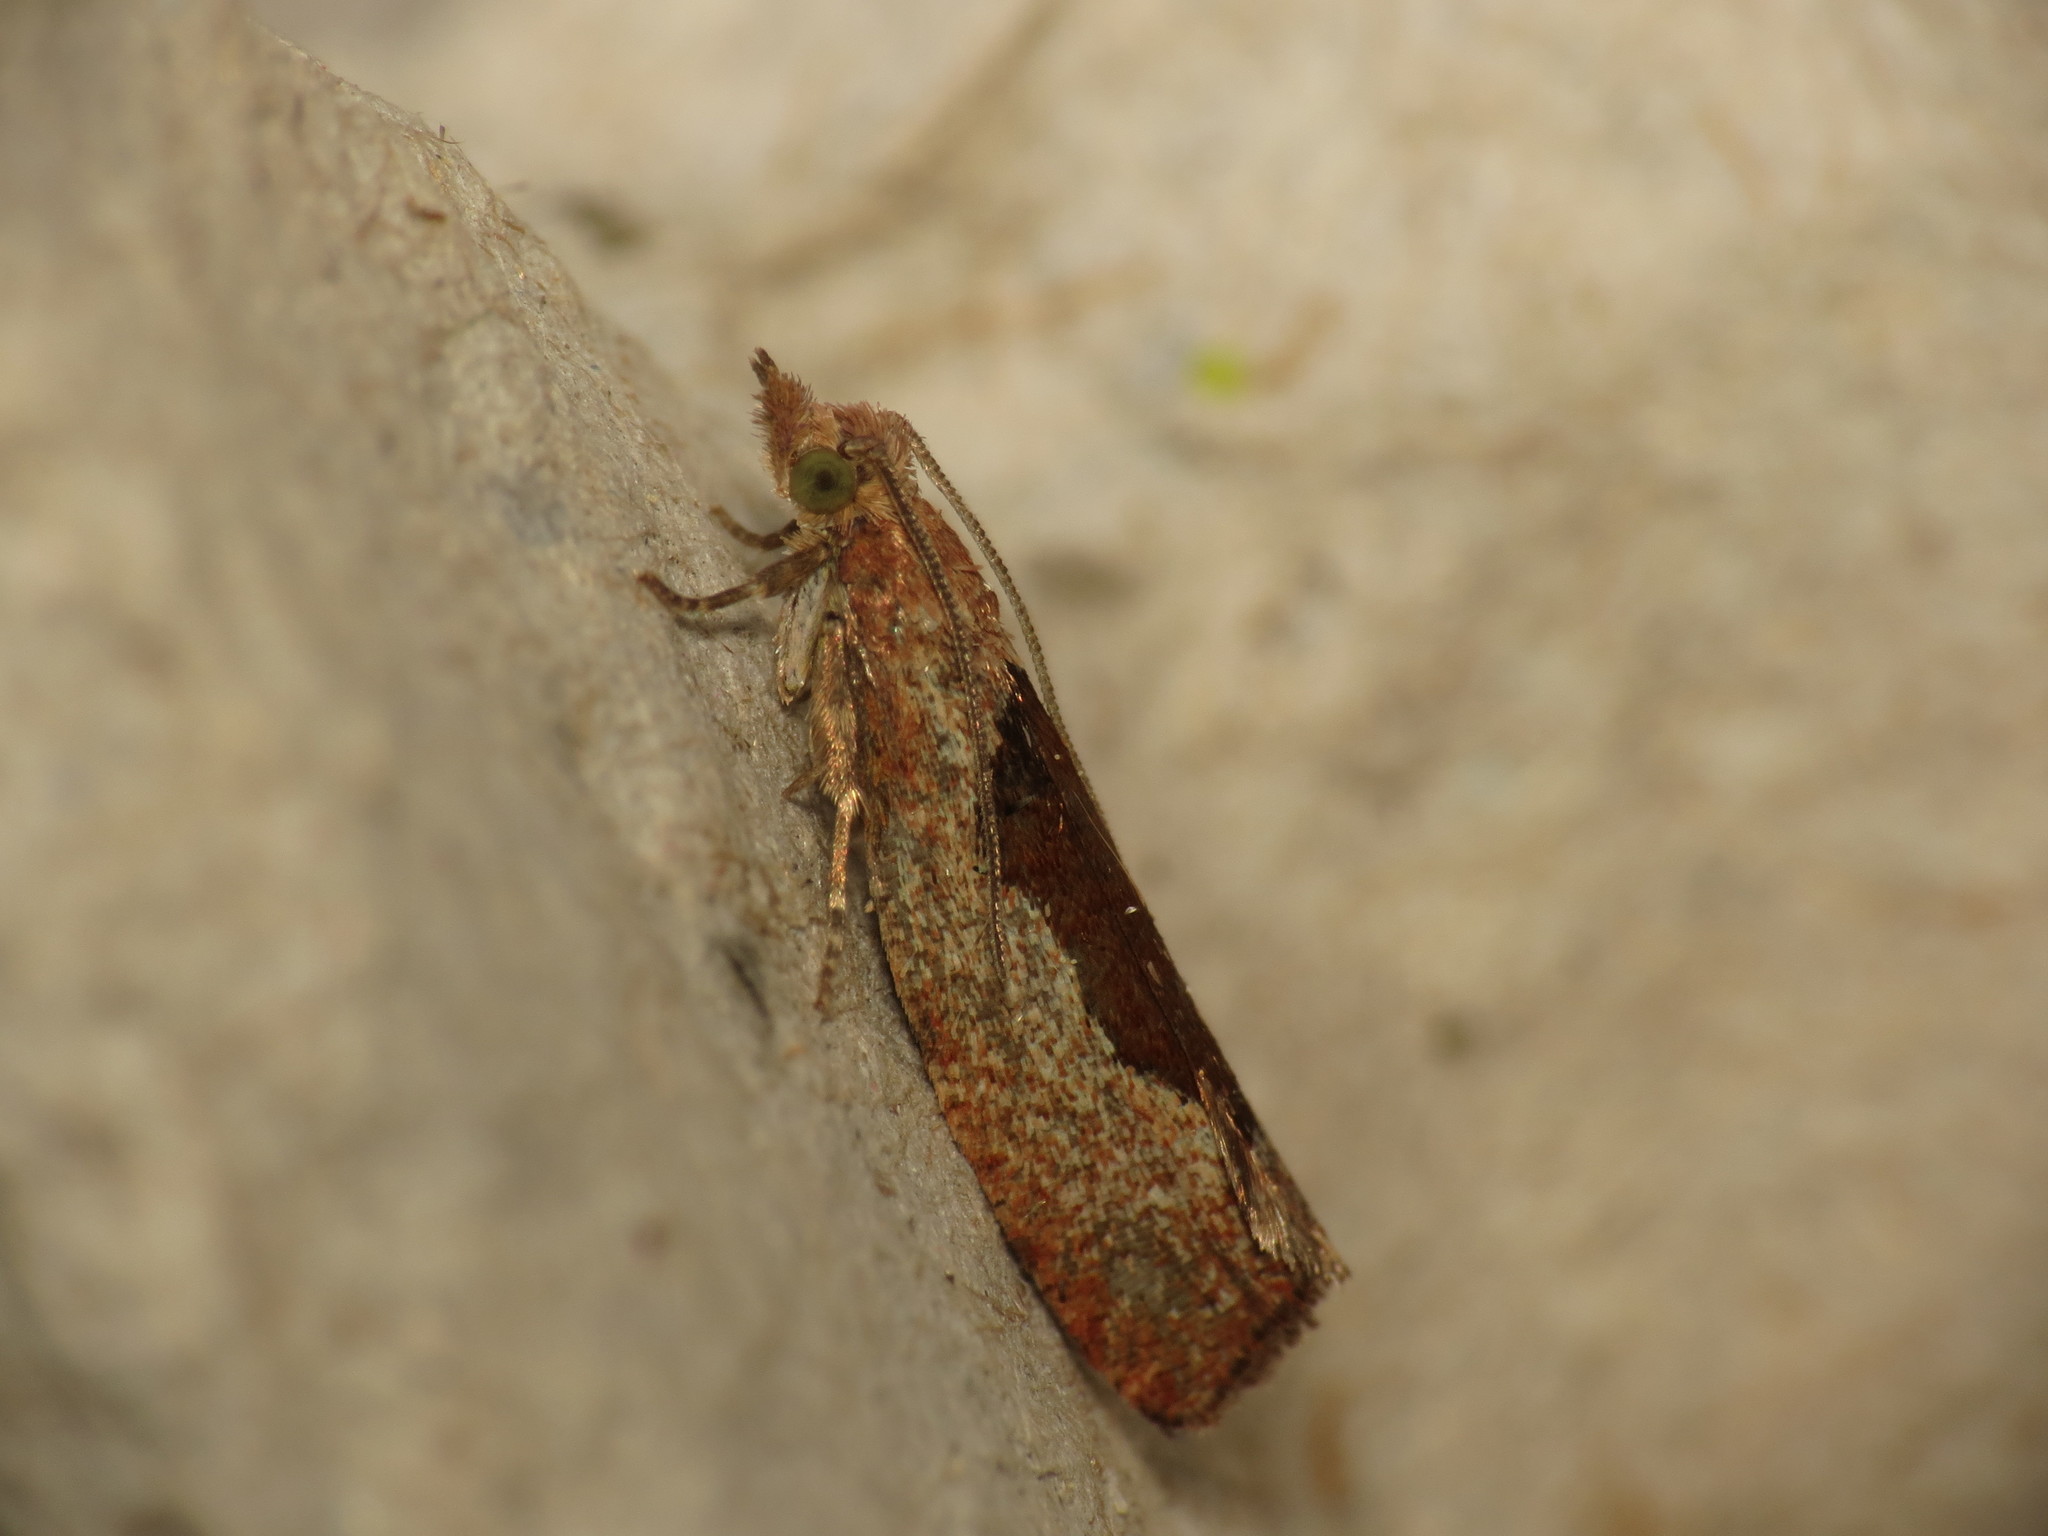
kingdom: Animalia
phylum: Arthropoda
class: Insecta
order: Lepidoptera
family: Tortricidae
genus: Epinotia
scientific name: Epinotia solandriana
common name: Variable bell
